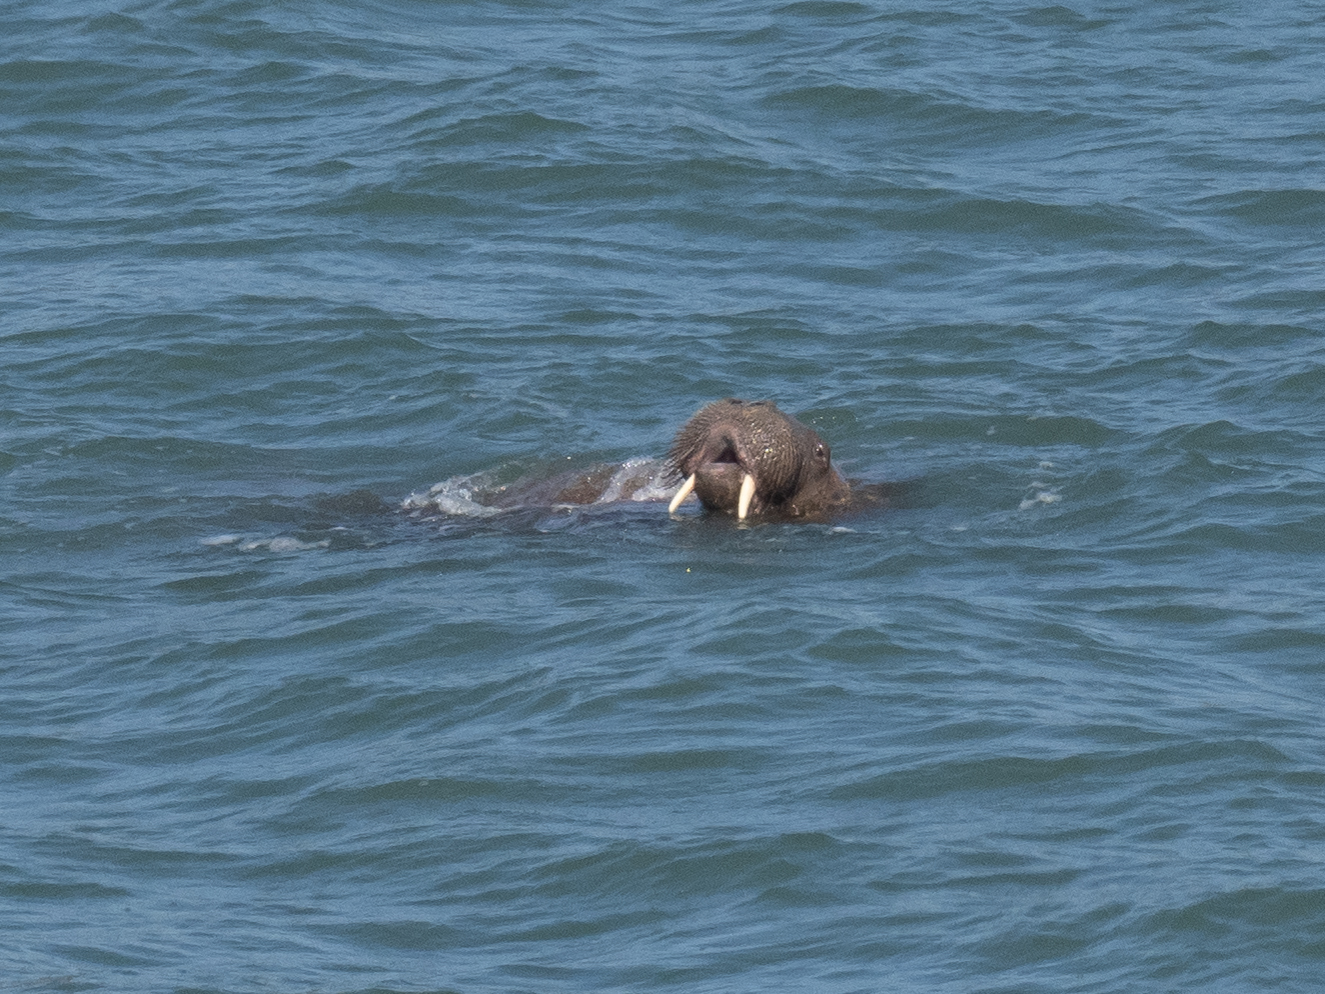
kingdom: Animalia
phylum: Chordata
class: Mammalia
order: Carnivora
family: Odobenidae
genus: Odobenus
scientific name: Odobenus rosmarus
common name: Walrus
